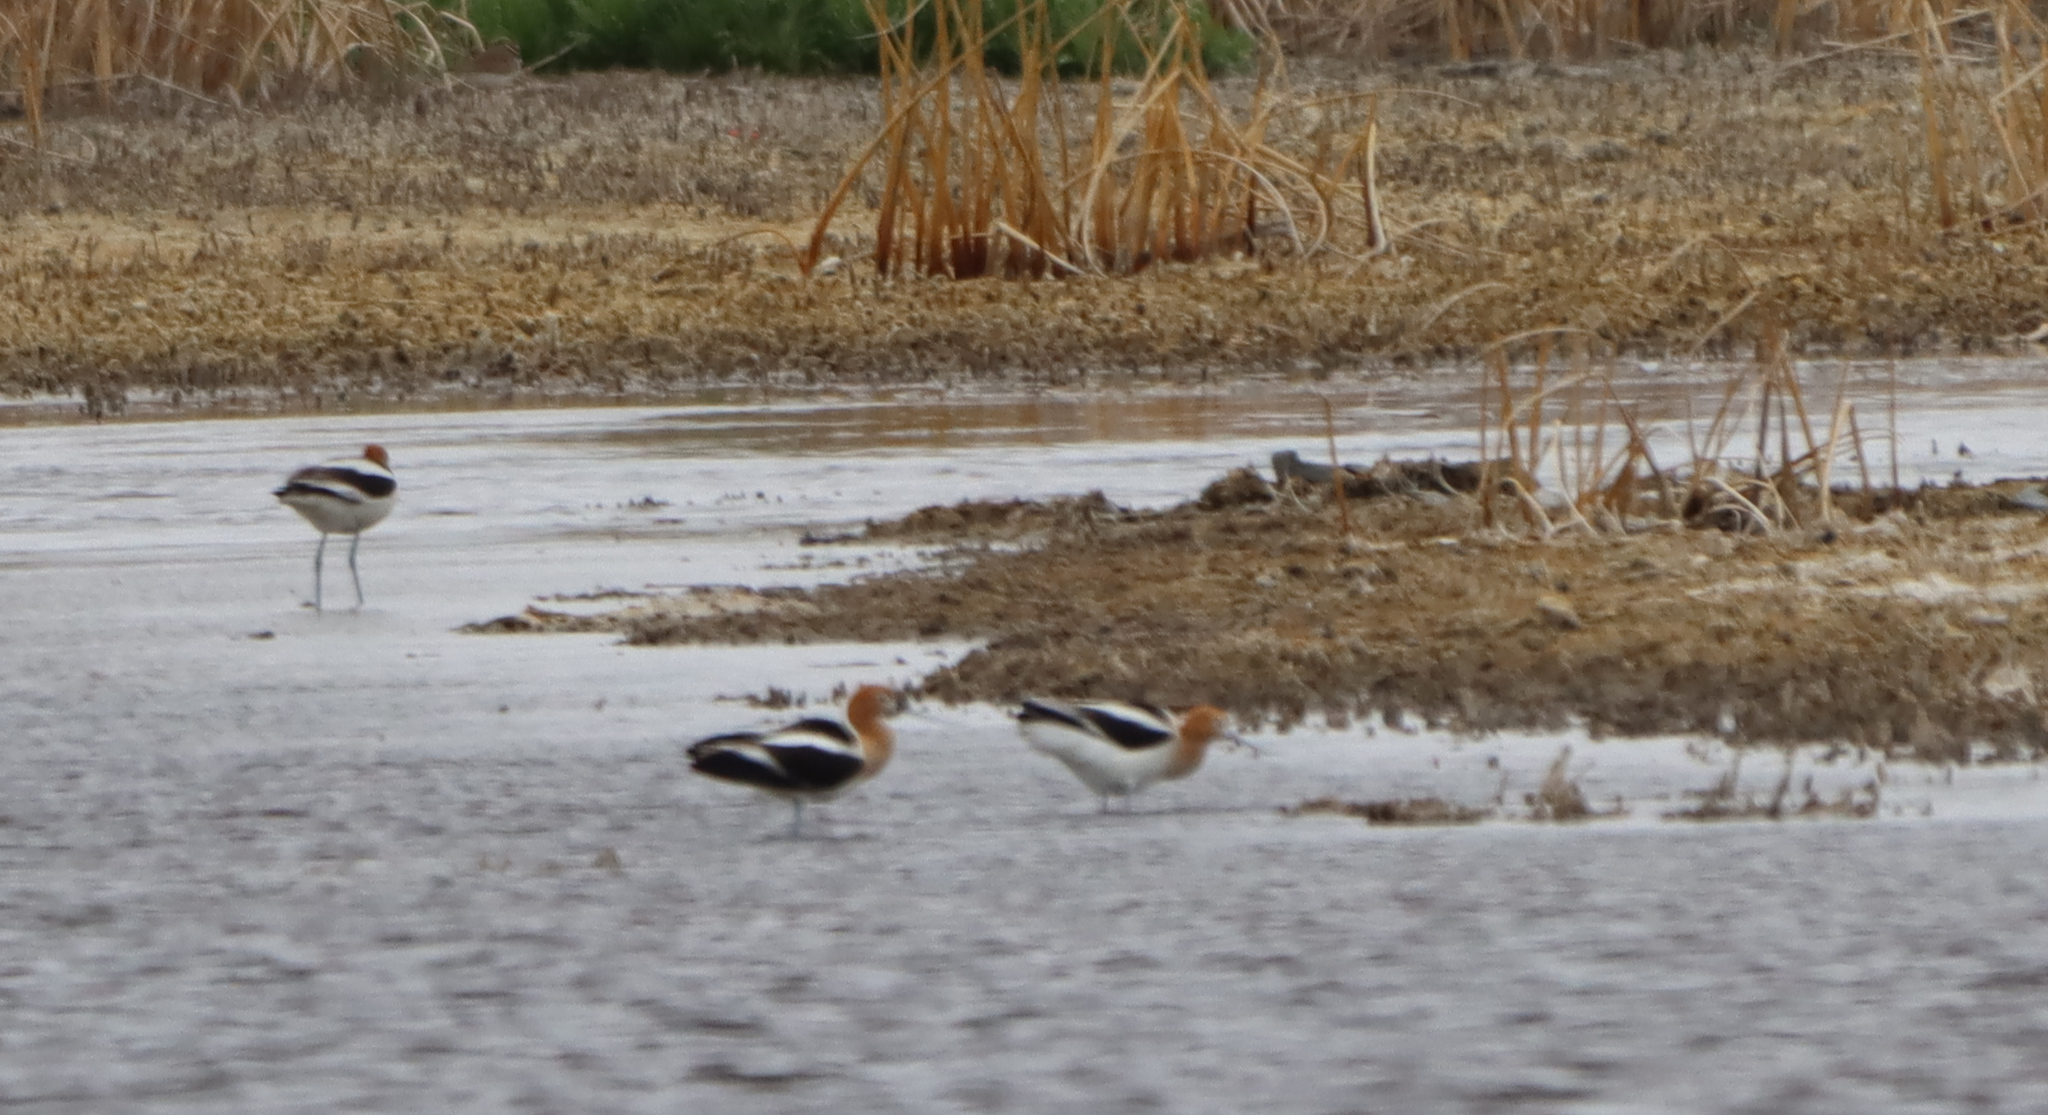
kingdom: Animalia
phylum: Chordata
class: Aves
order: Charadriiformes
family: Recurvirostridae
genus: Recurvirostra
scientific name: Recurvirostra americana
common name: American avocet
